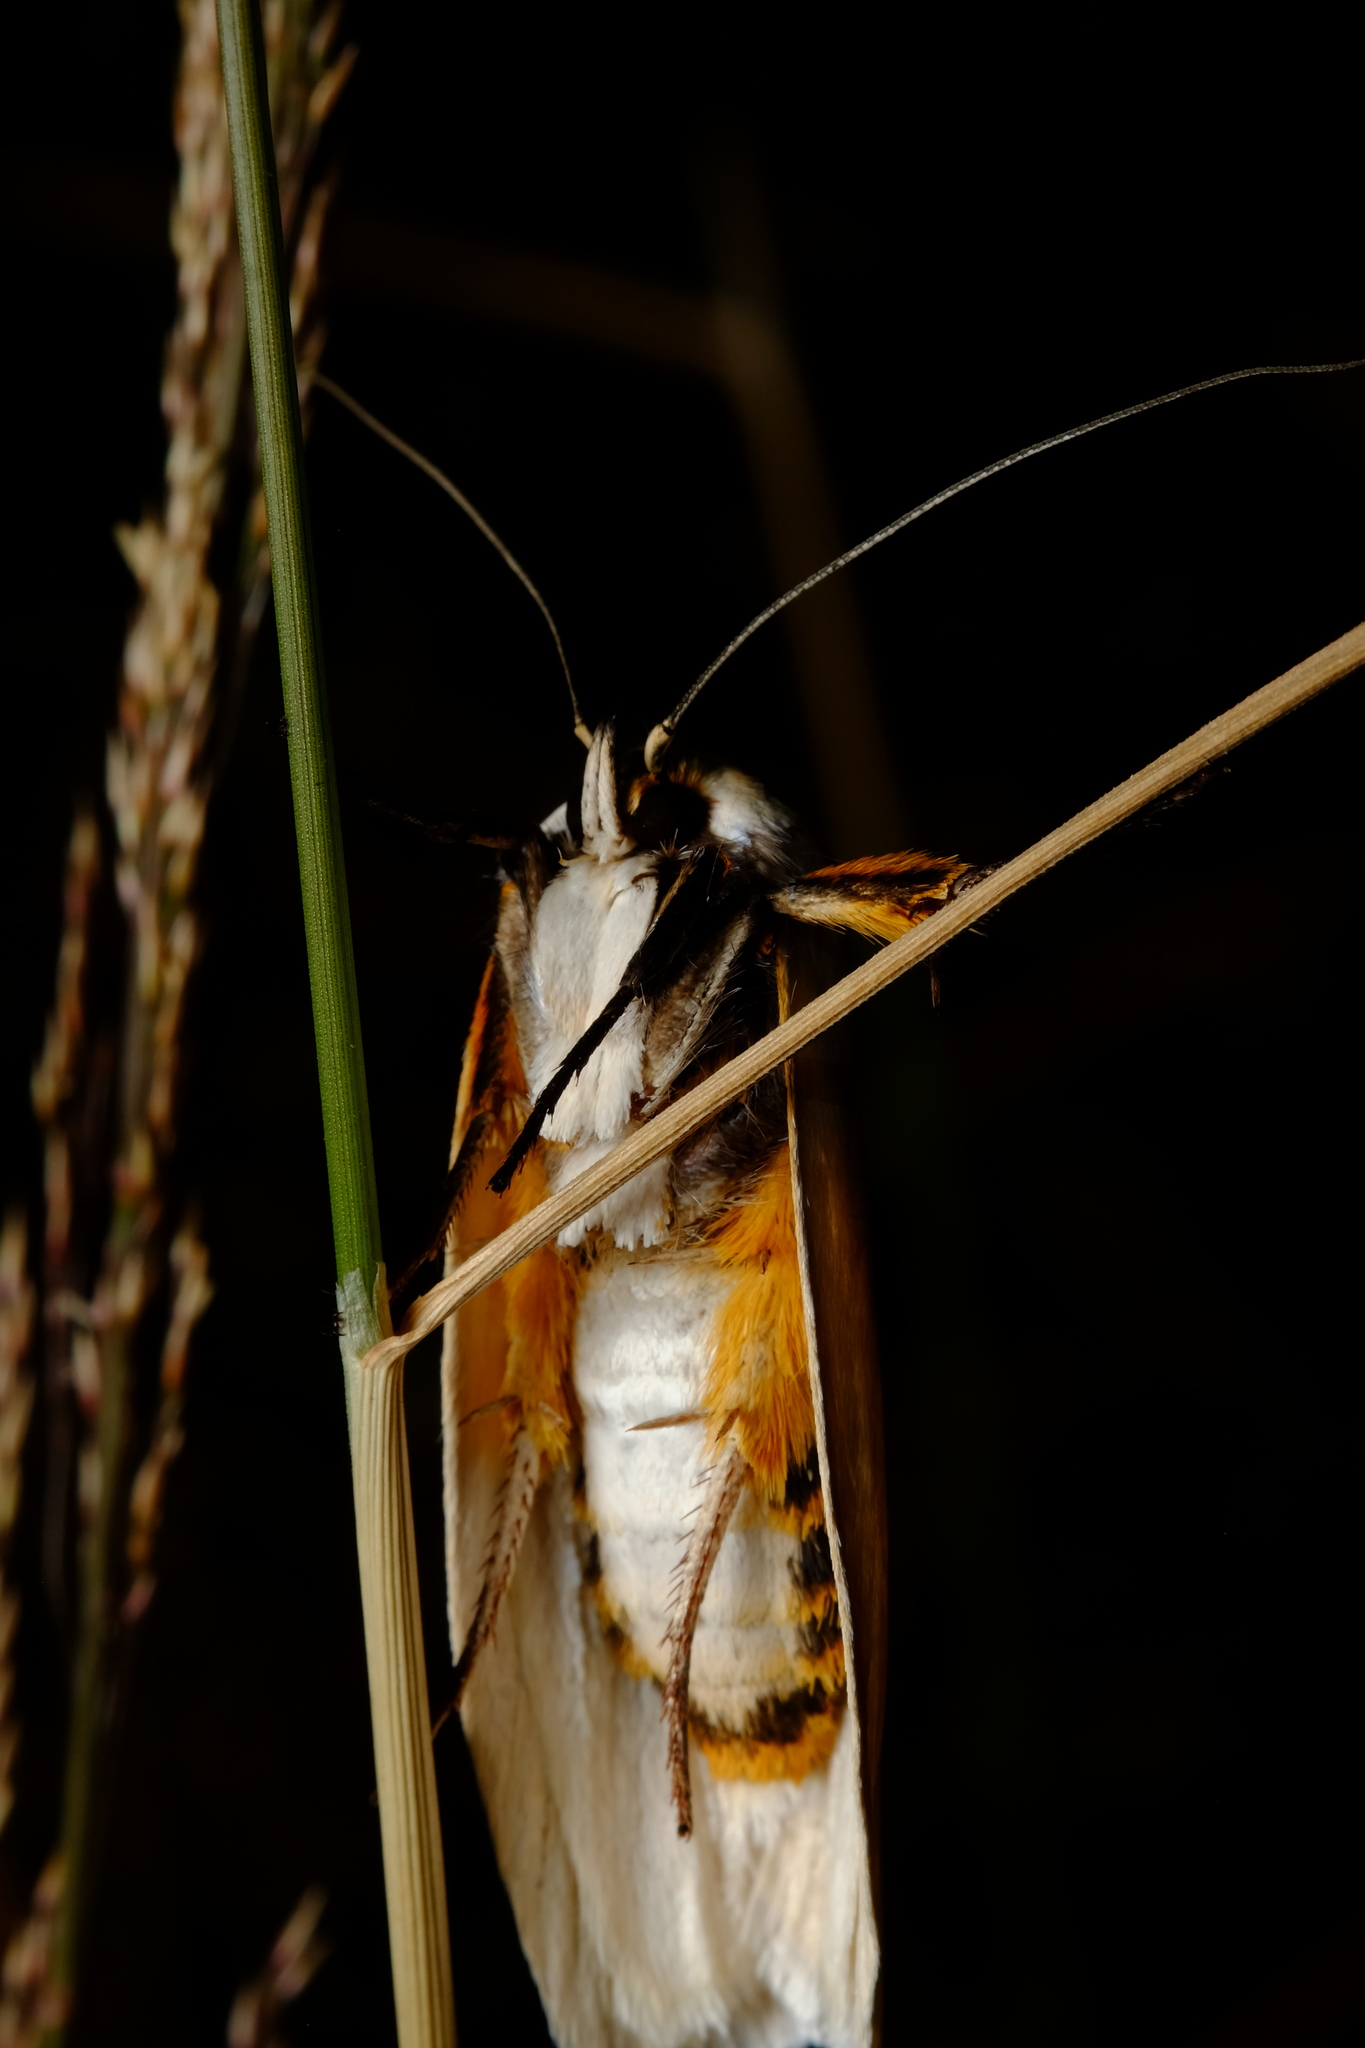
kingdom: Animalia
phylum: Arthropoda
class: Insecta
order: Lepidoptera
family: Xyloryctidae
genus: Maroga
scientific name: Maroga melanostigma
